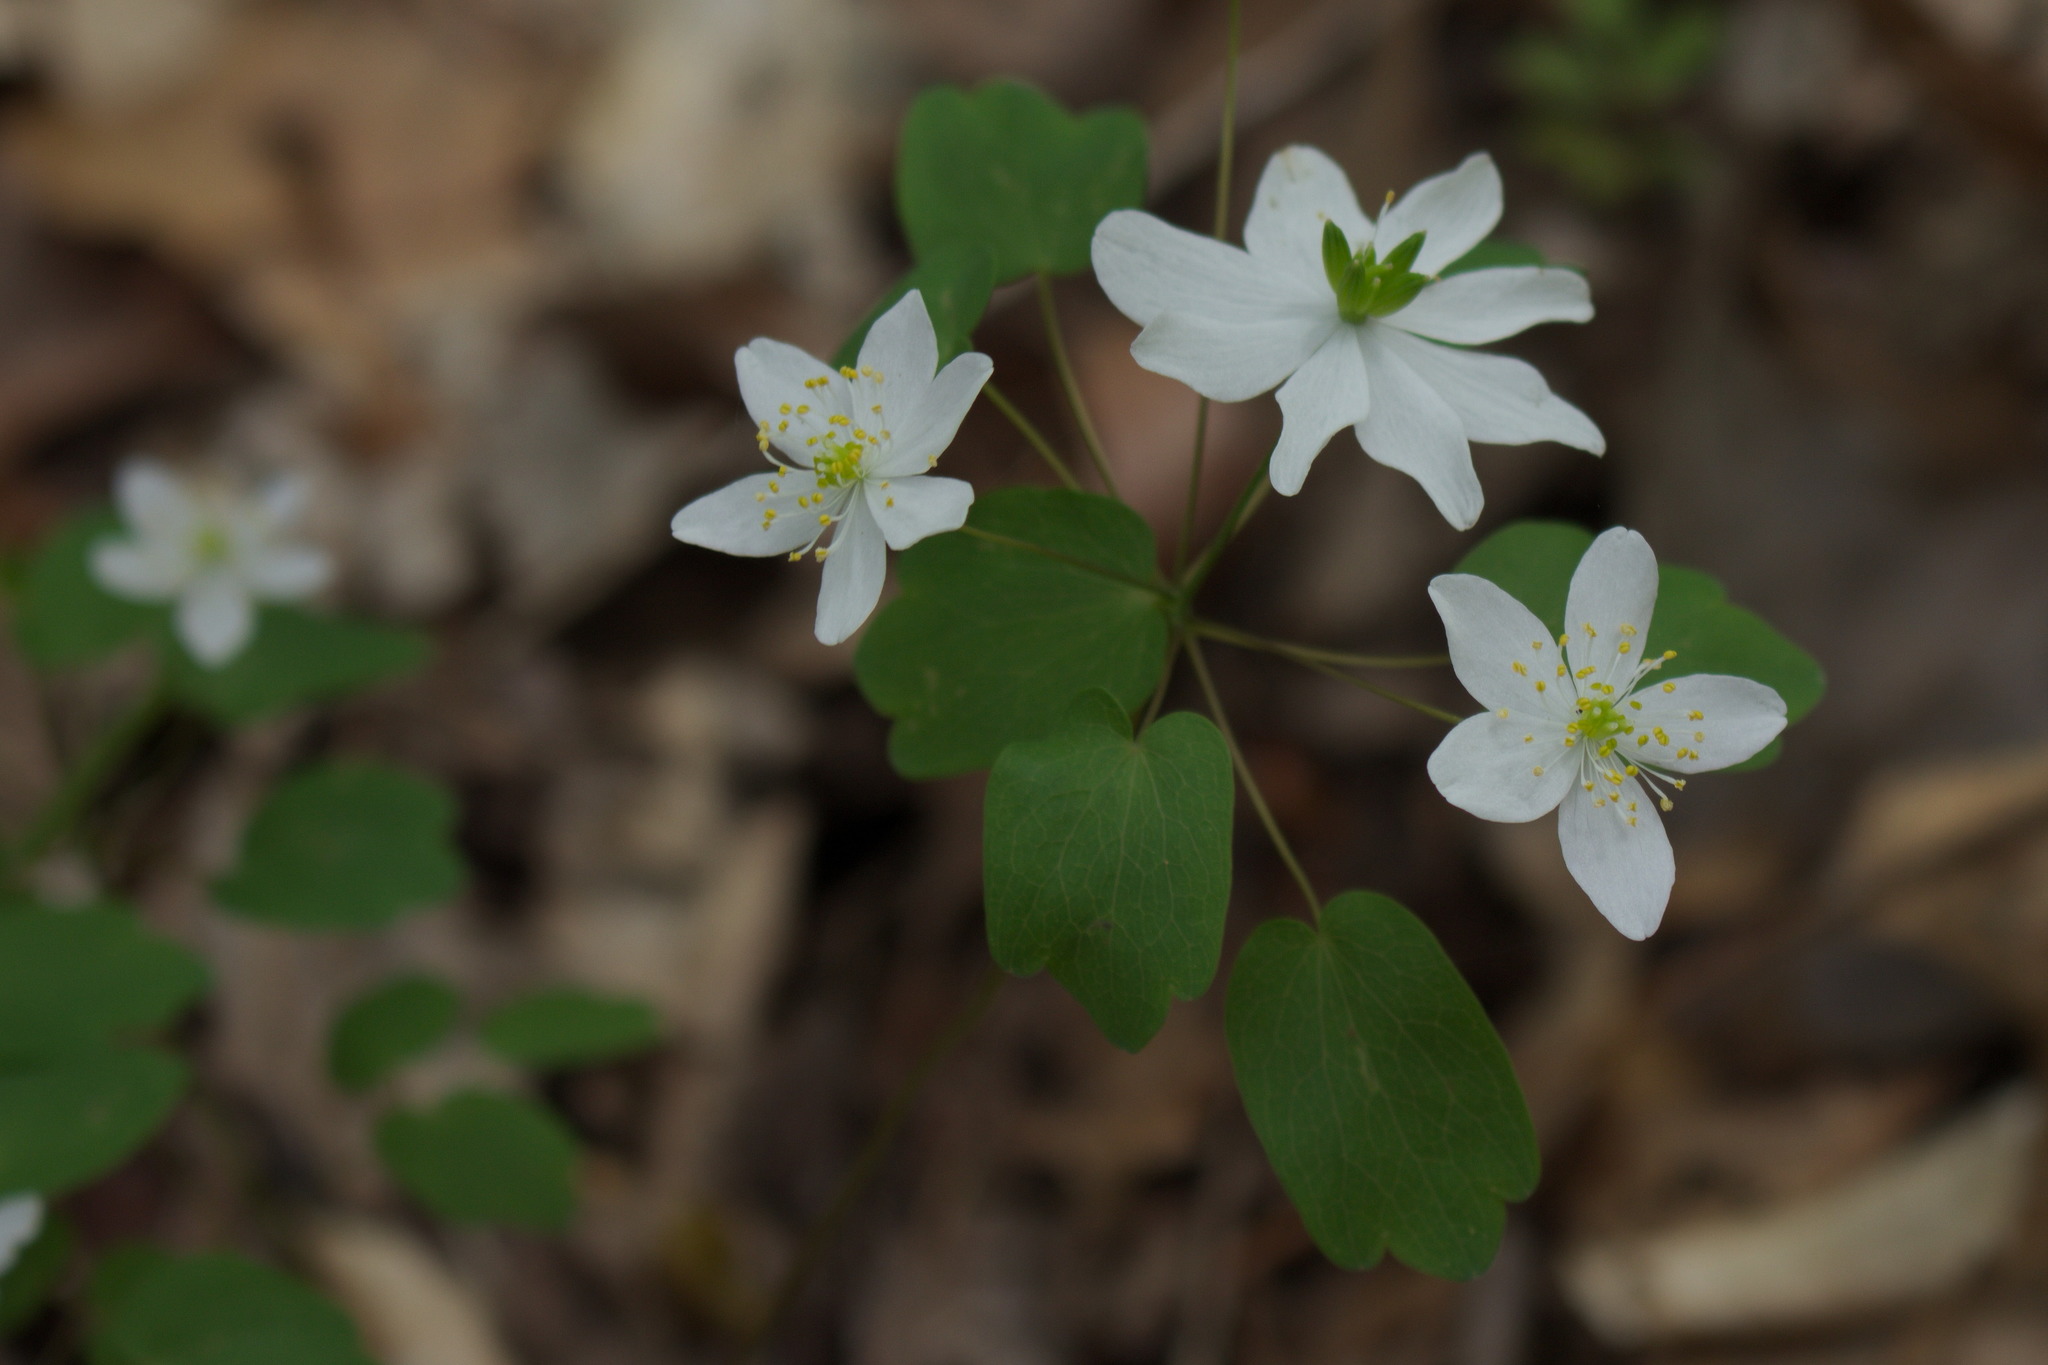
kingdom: Plantae
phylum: Tracheophyta
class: Magnoliopsida
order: Ranunculales
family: Ranunculaceae
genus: Thalictrum
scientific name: Thalictrum thalictroides
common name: Rue-anemone
